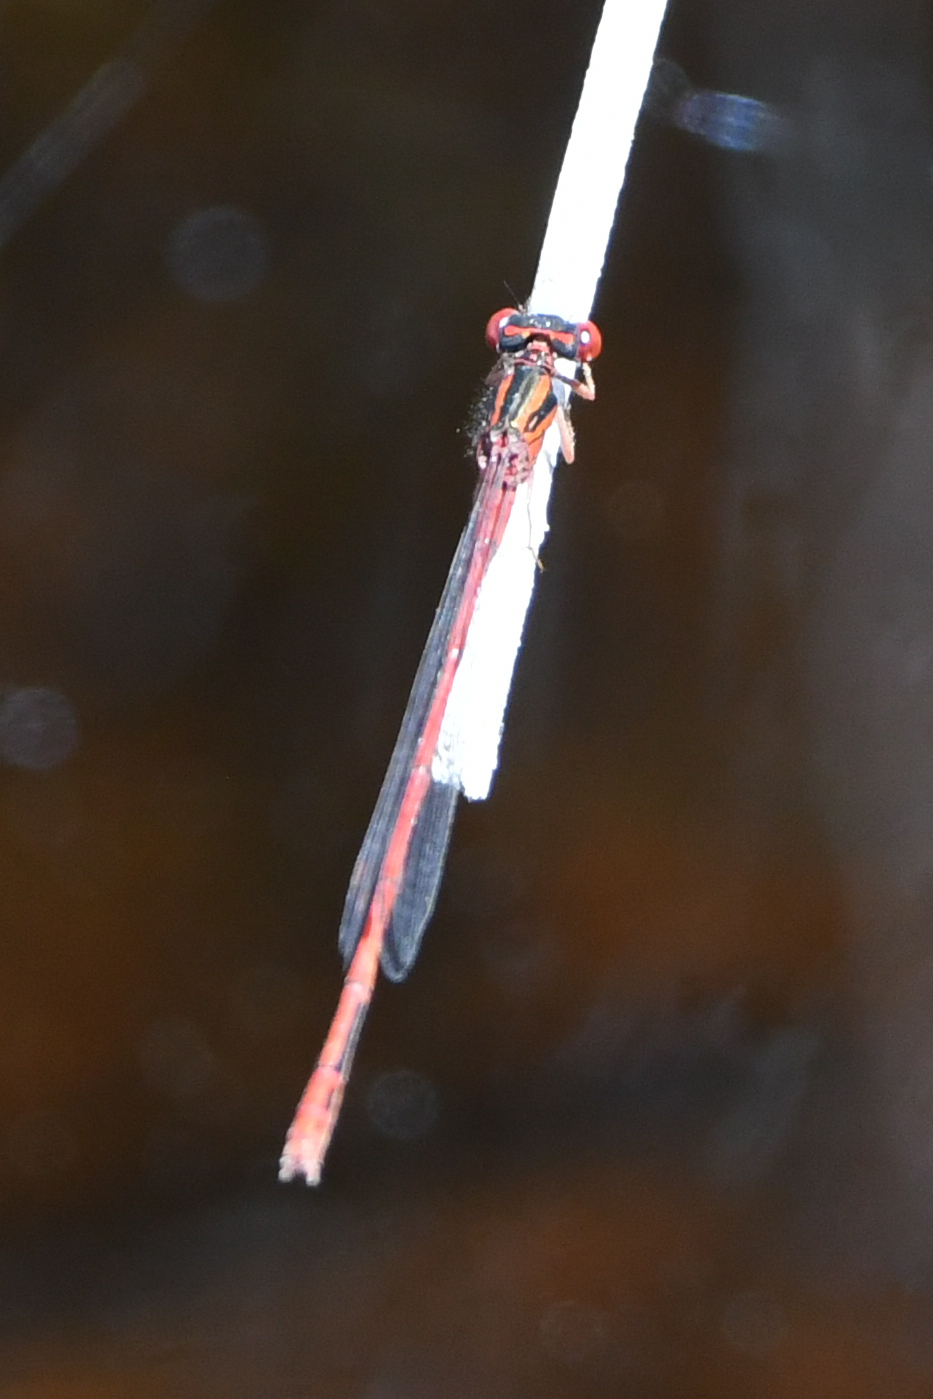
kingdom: Animalia
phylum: Arthropoda
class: Insecta
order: Odonata
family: Coenagrionidae
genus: Xanthocnemis
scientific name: Xanthocnemis zealandica
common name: Common redcoat damselfly
